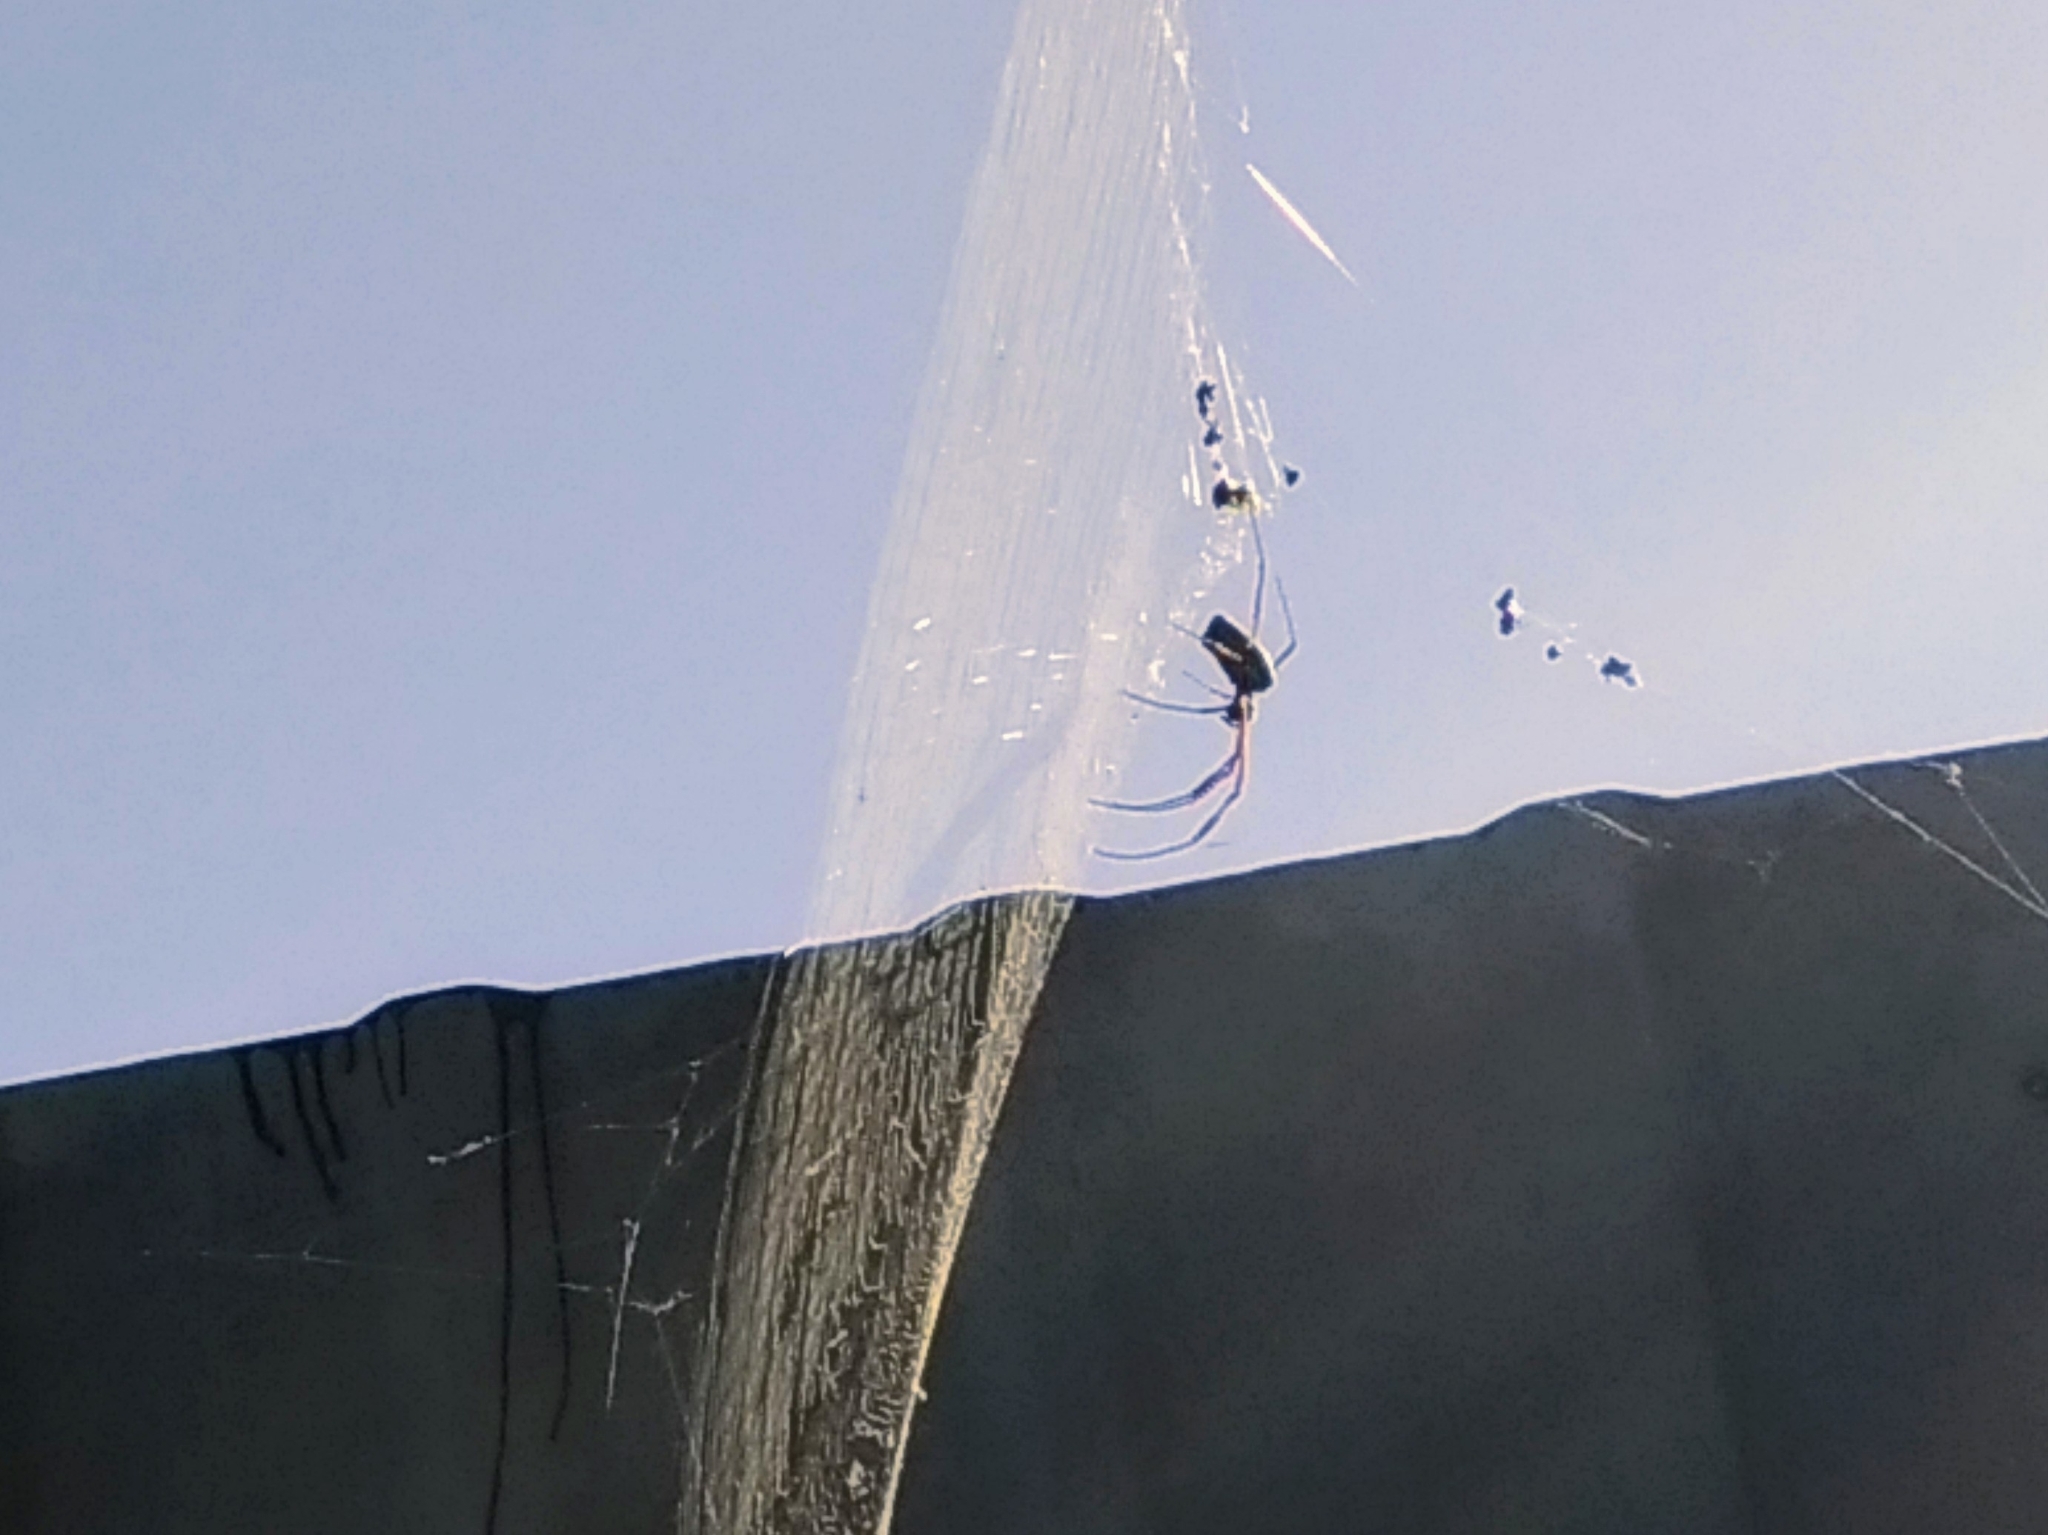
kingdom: Animalia
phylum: Arthropoda
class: Arachnida
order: Araneae
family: Araneidae
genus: Trichonephila
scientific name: Trichonephila clavipes
